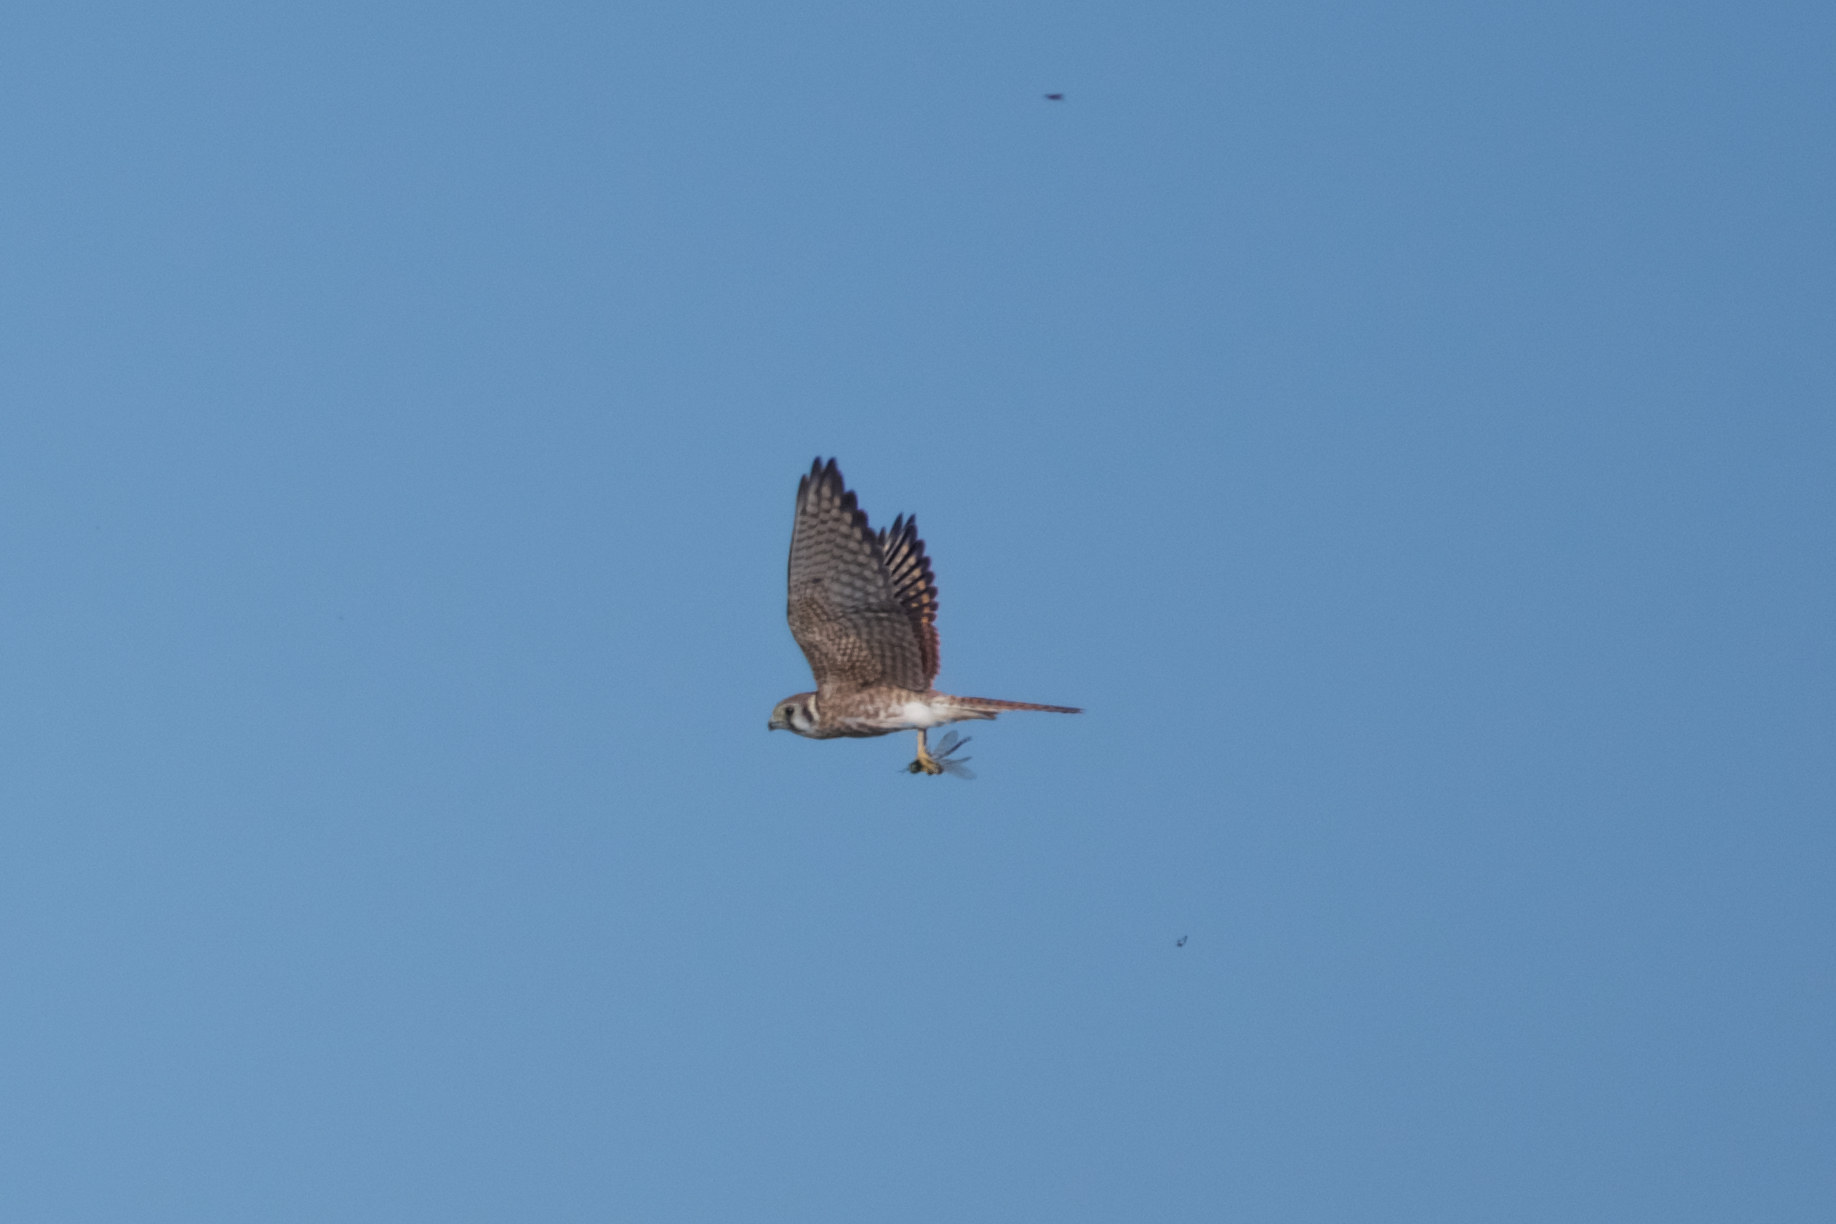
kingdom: Animalia
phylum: Chordata
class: Aves
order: Falconiformes
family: Falconidae
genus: Falco
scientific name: Falco sparverius
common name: American kestrel
